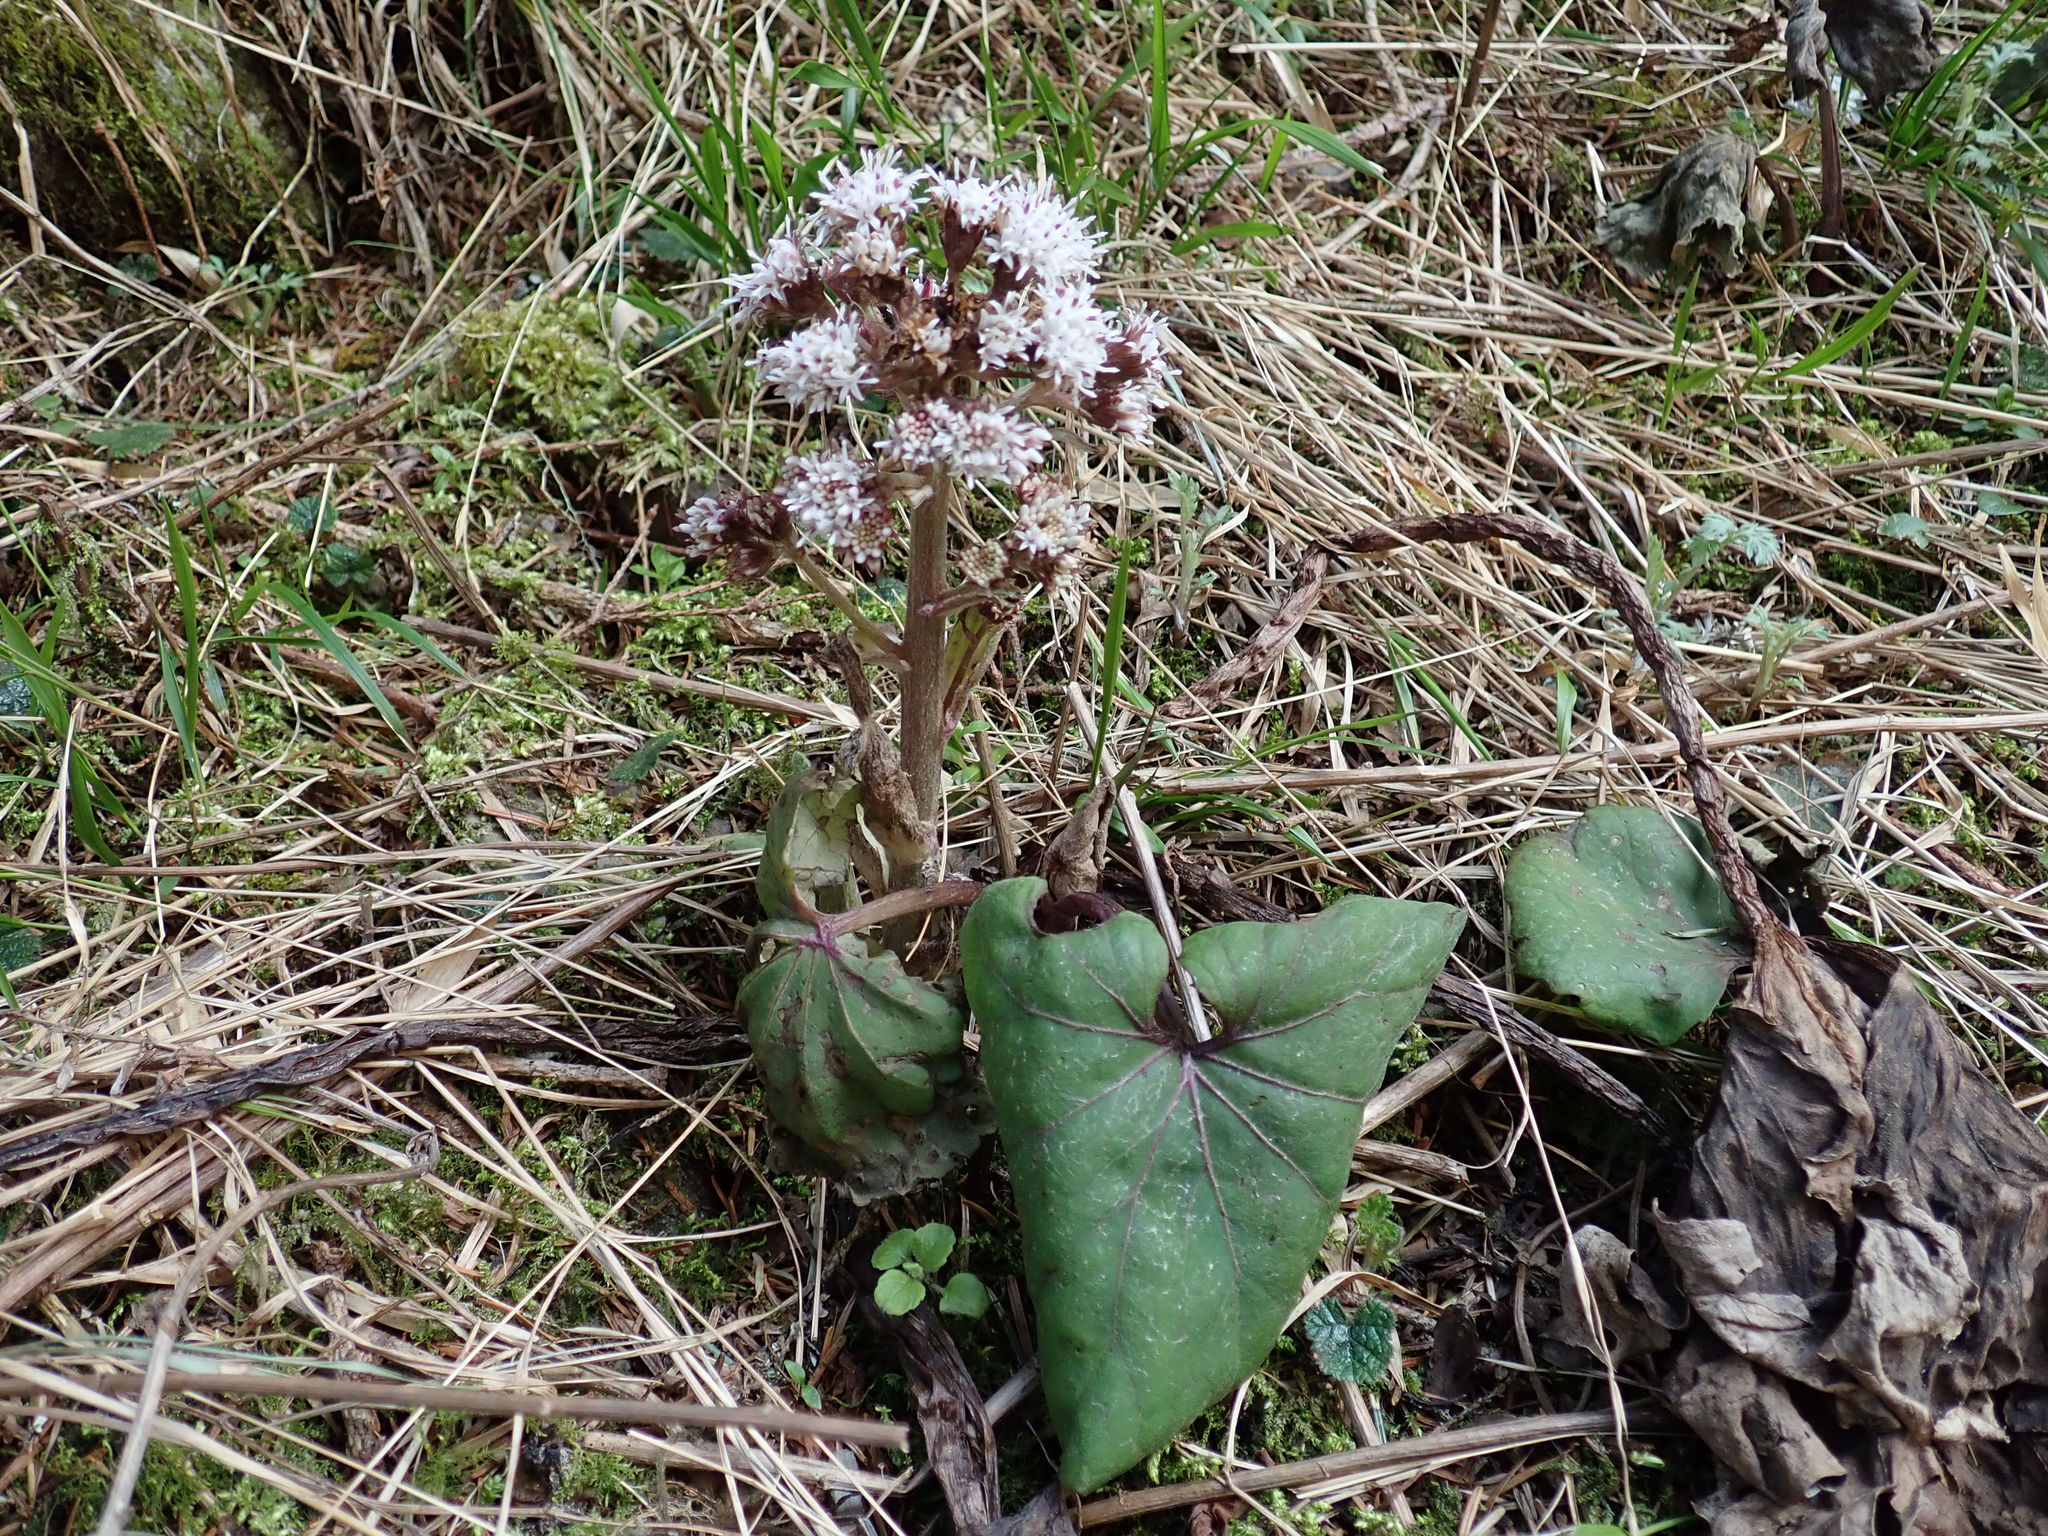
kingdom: Plantae
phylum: Tracheophyta
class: Magnoliopsida
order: Asterales
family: Asteraceae
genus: Petasites
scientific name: Petasites formosanus
